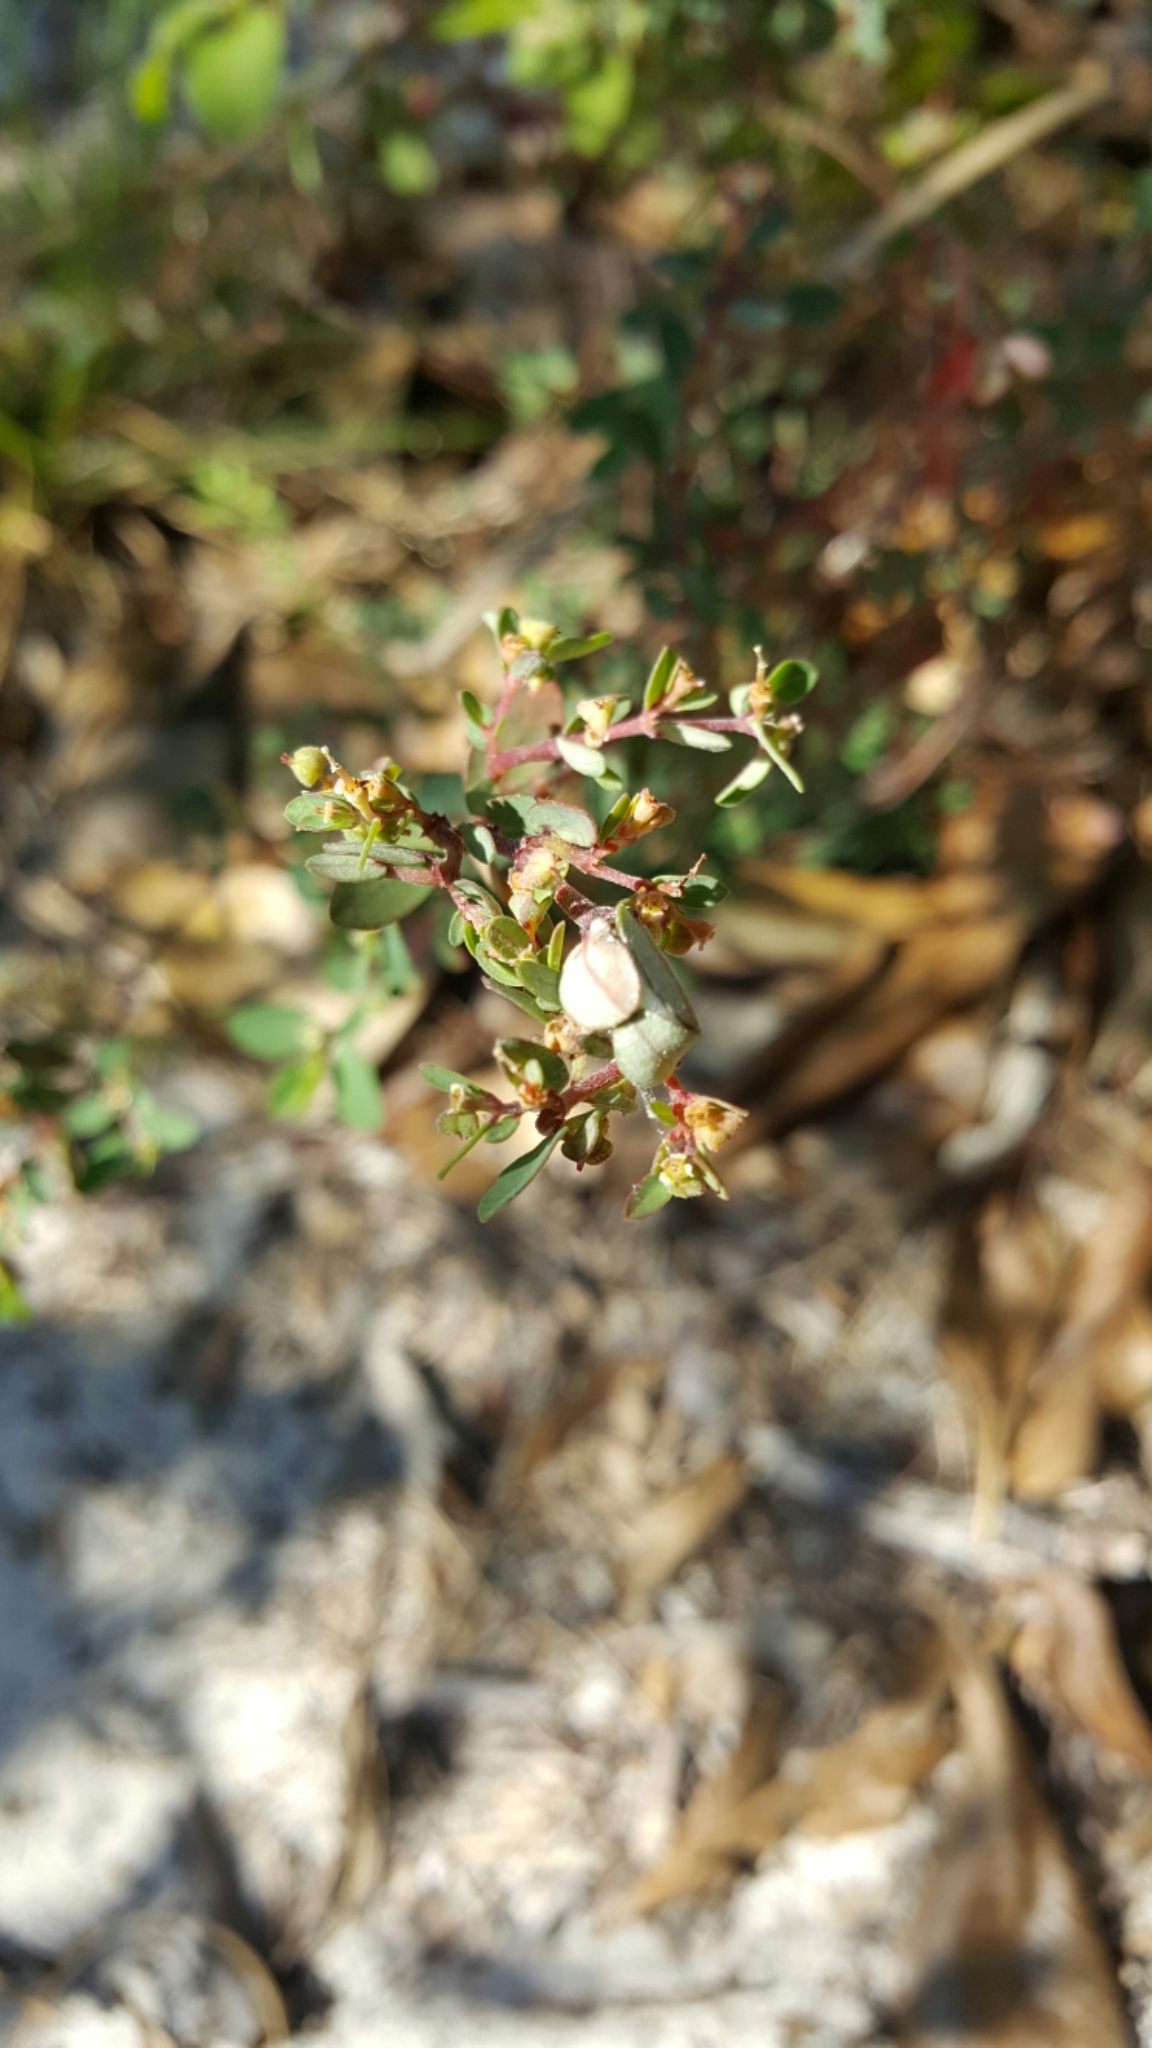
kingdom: Plantae
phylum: Tracheophyta
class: Magnoliopsida
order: Malpighiales
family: Euphorbiaceae
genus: Euphorbia
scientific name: Euphorbia garberi
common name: Garber's spurge
